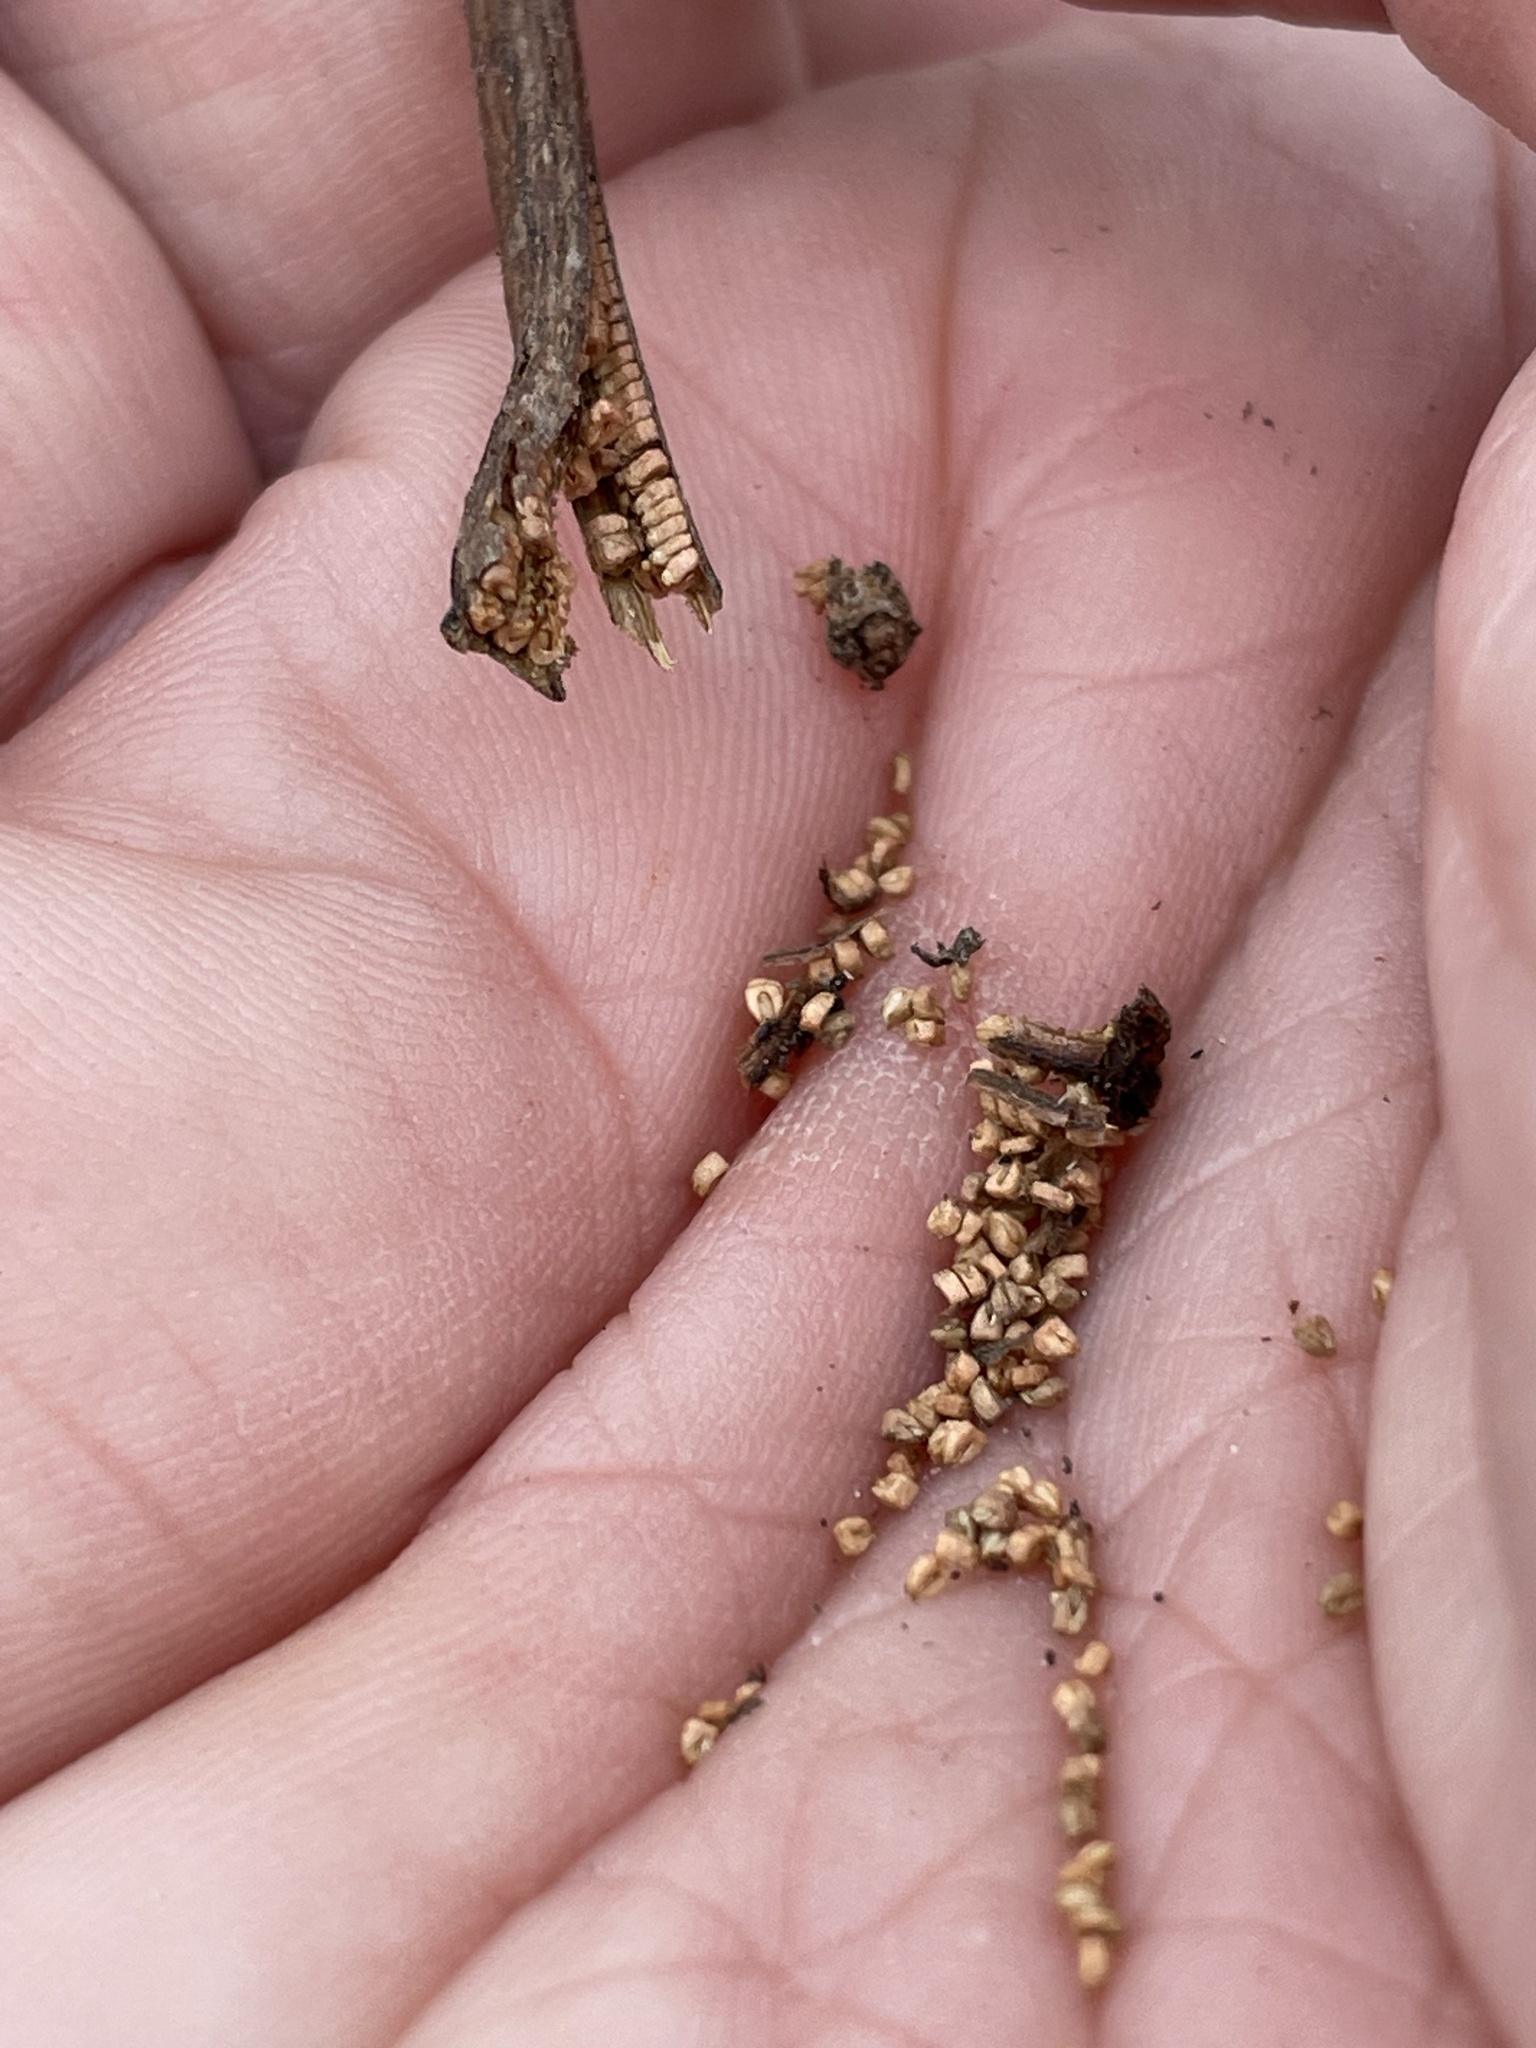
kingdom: Plantae
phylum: Tracheophyta
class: Magnoliopsida
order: Myrtales
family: Onagraceae
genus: Ludwigia
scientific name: Ludwigia leptocarpa
